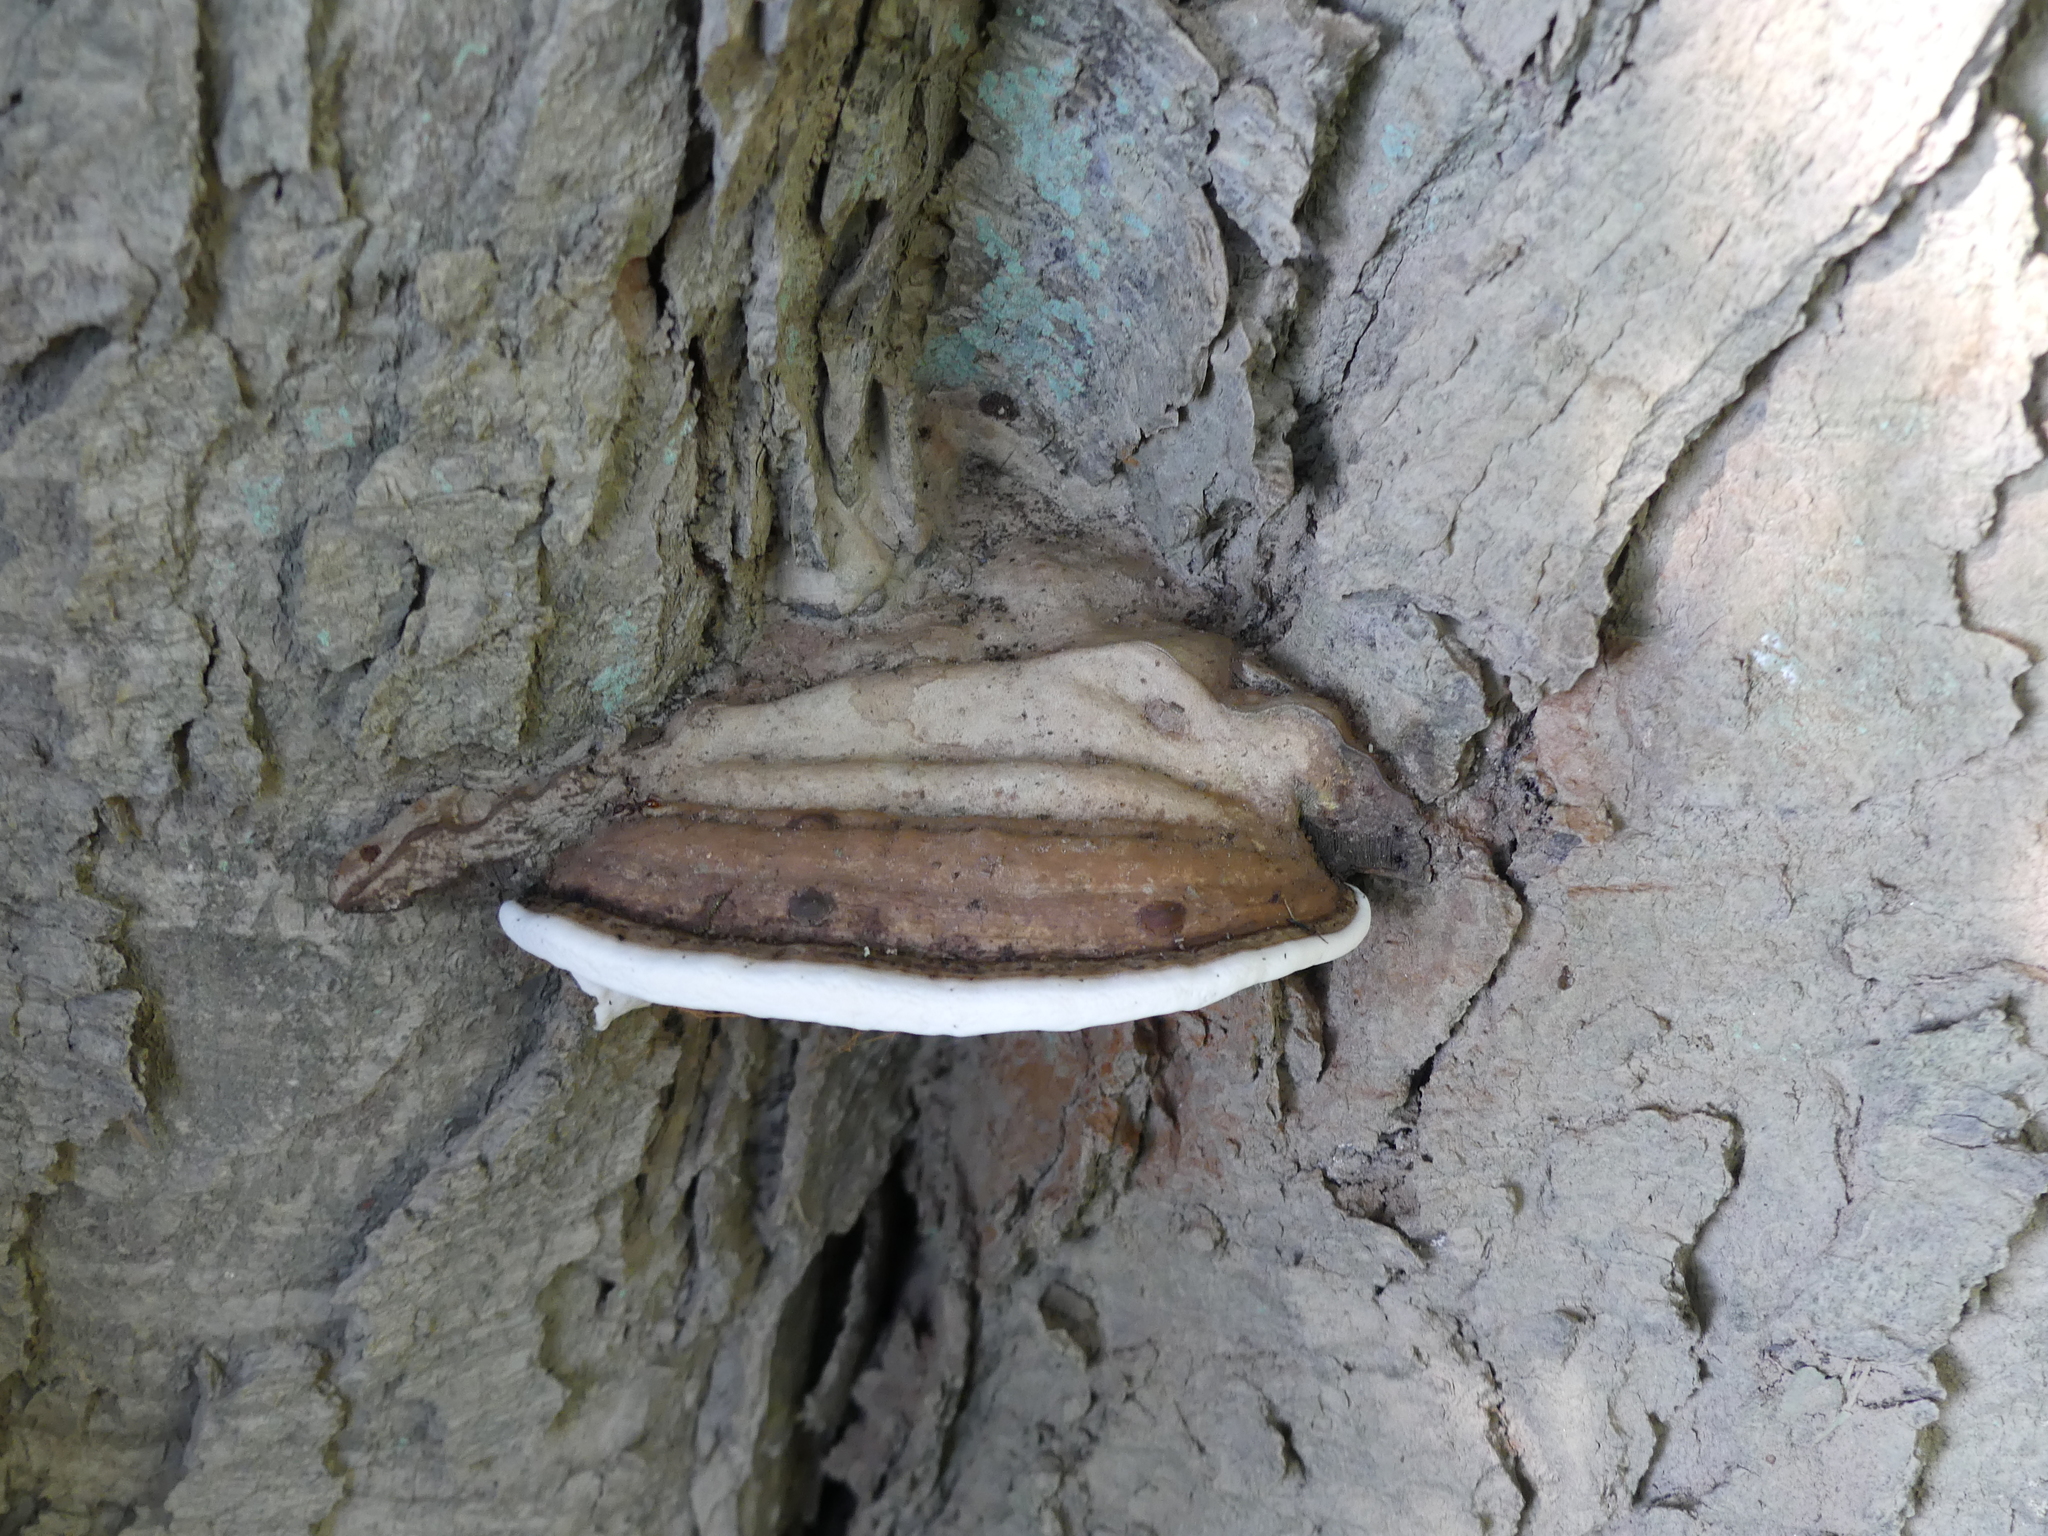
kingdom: Fungi
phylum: Basidiomycota
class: Agaricomycetes
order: Polyporales
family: Polyporaceae
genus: Ganoderma
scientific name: Ganoderma applanatum
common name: Artist's bracket
